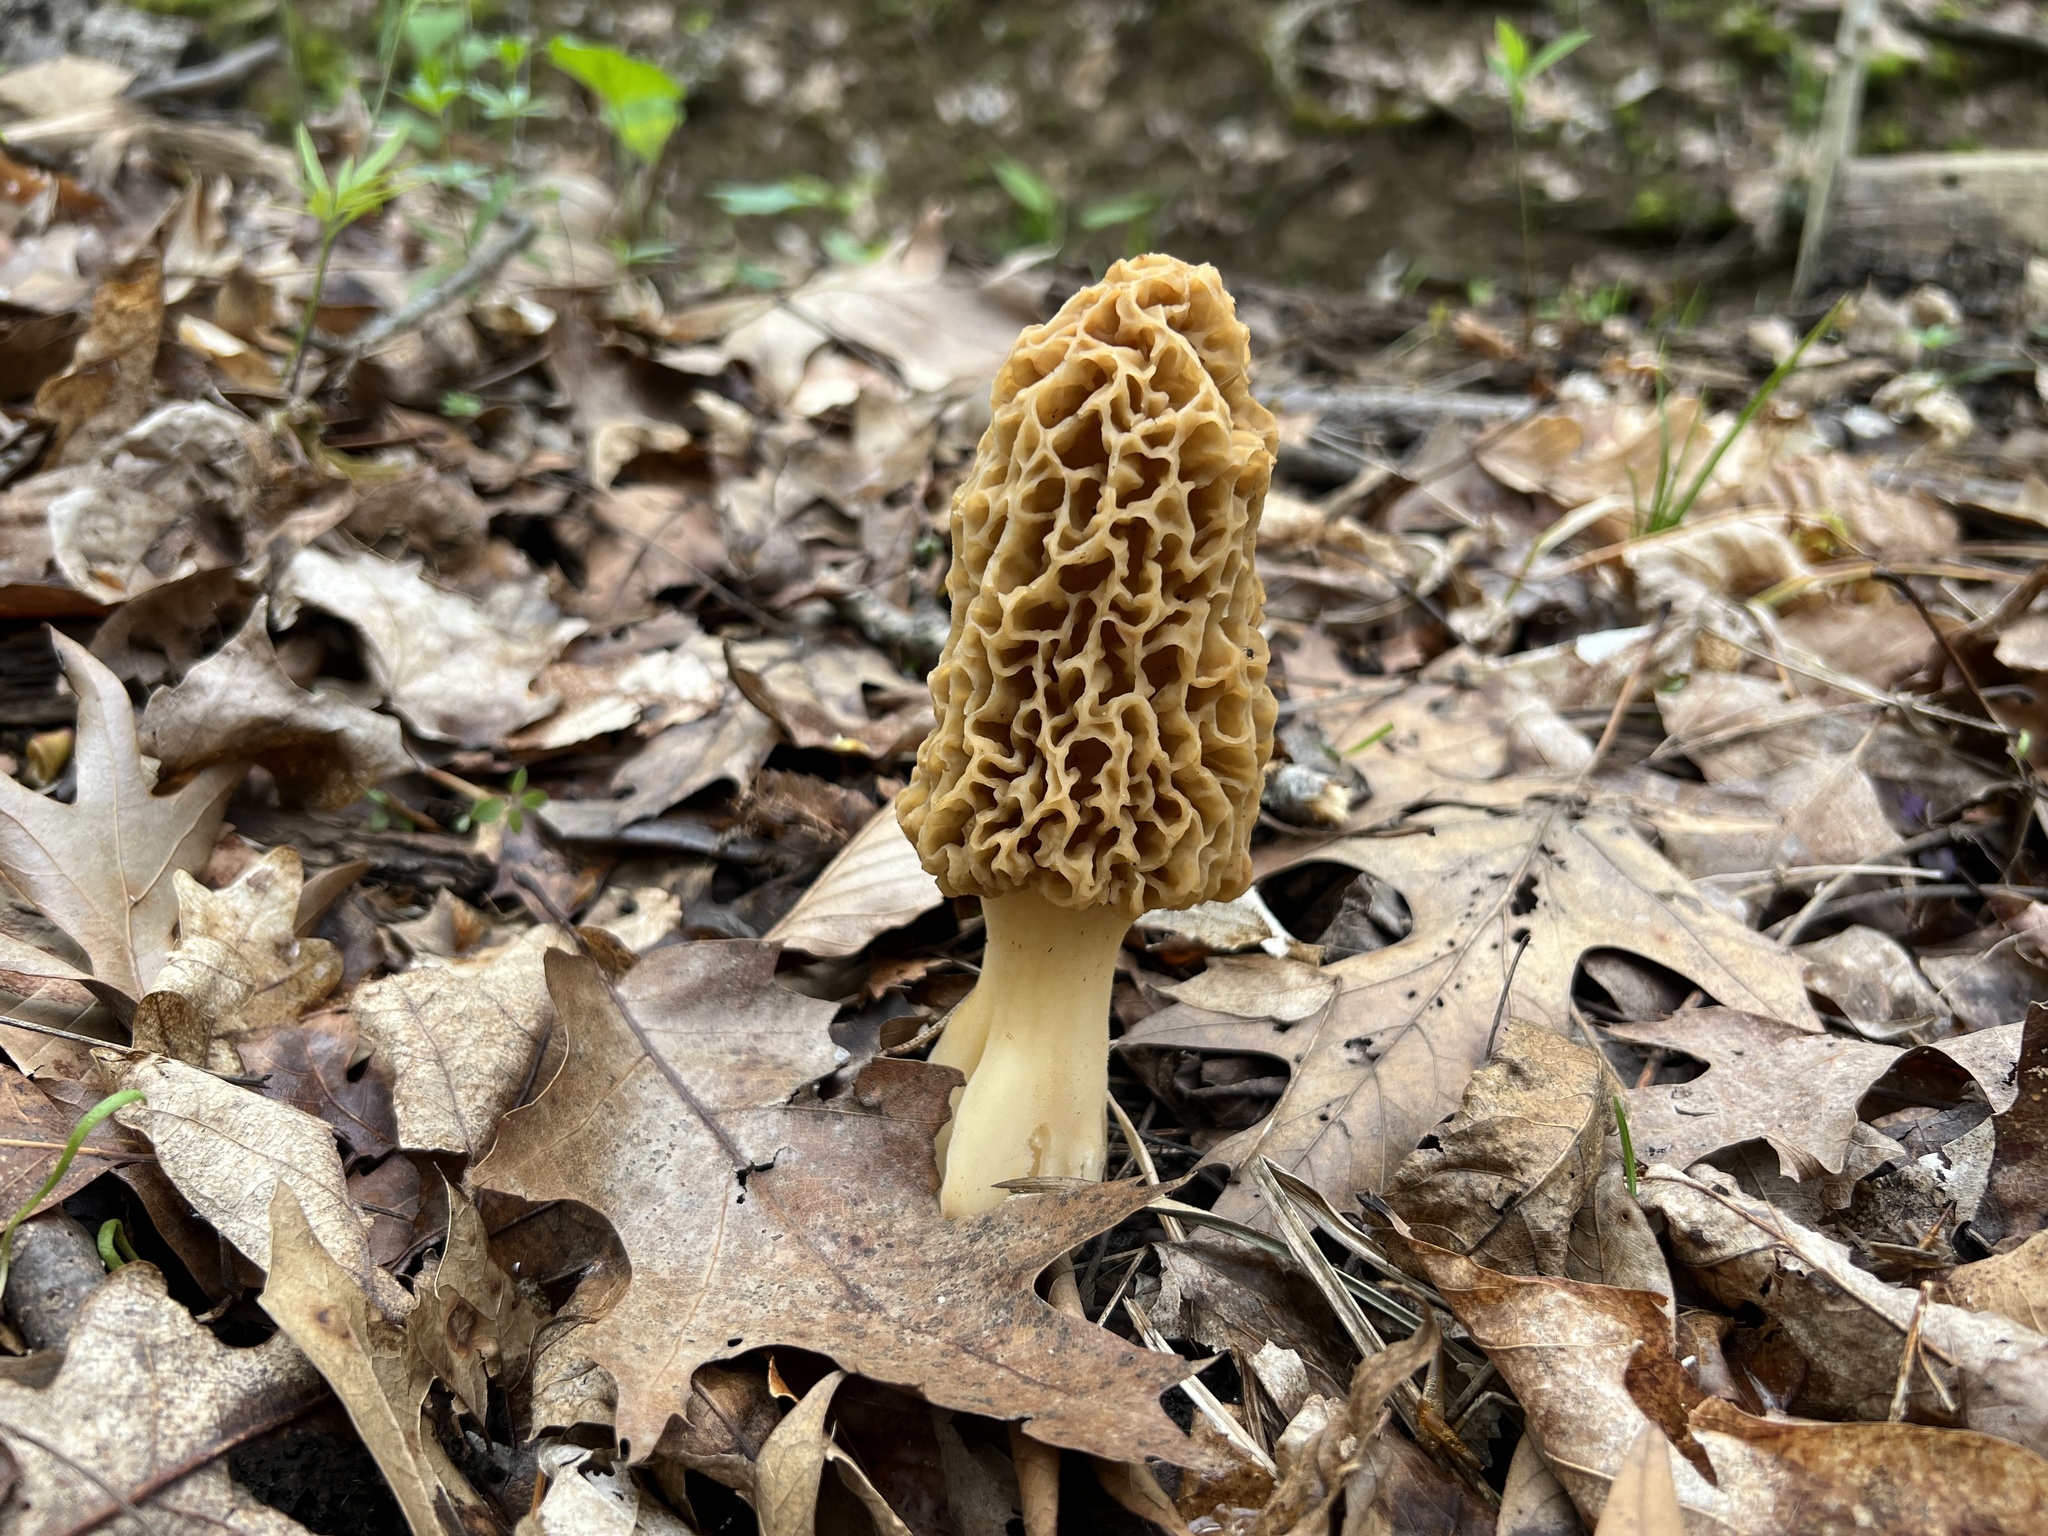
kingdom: Fungi
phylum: Ascomycota
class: Pezizomycetes
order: Pezizales
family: Morchellaceae
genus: Morchella
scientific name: Morchella americana
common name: White morel
